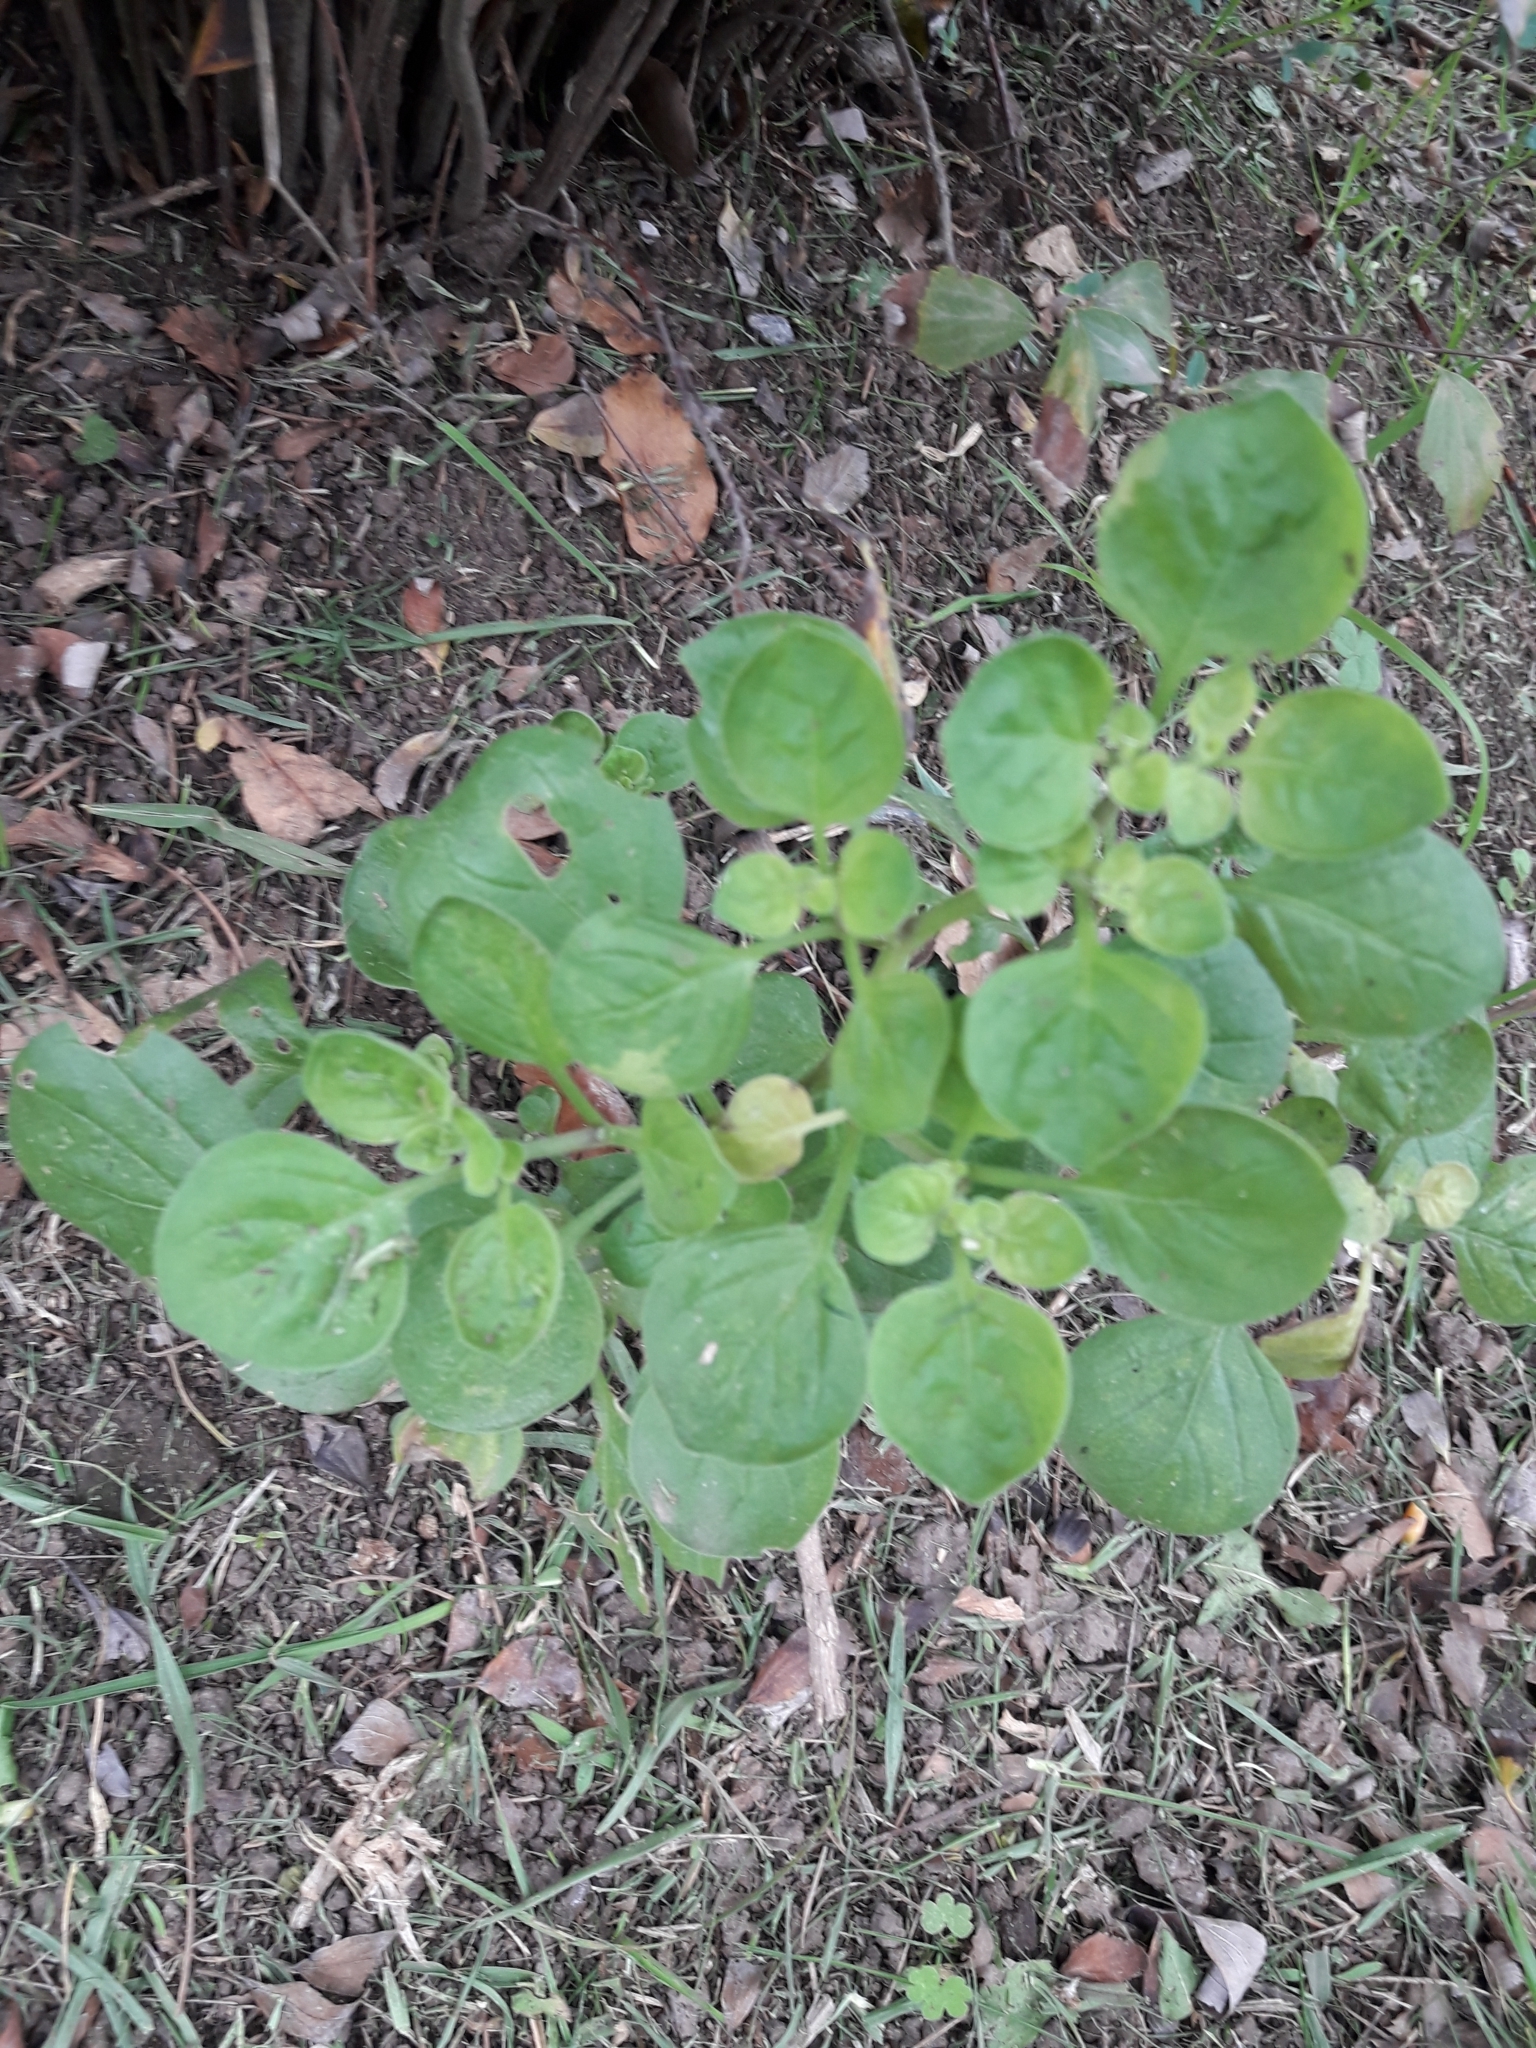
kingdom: Plantae
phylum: Tracheophyta
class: Magnoliopsida
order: Solanales
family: Solanaceae
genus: Salpichroa
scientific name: Salpichroa origanifolia
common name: Lily-of-the-valley-vine
